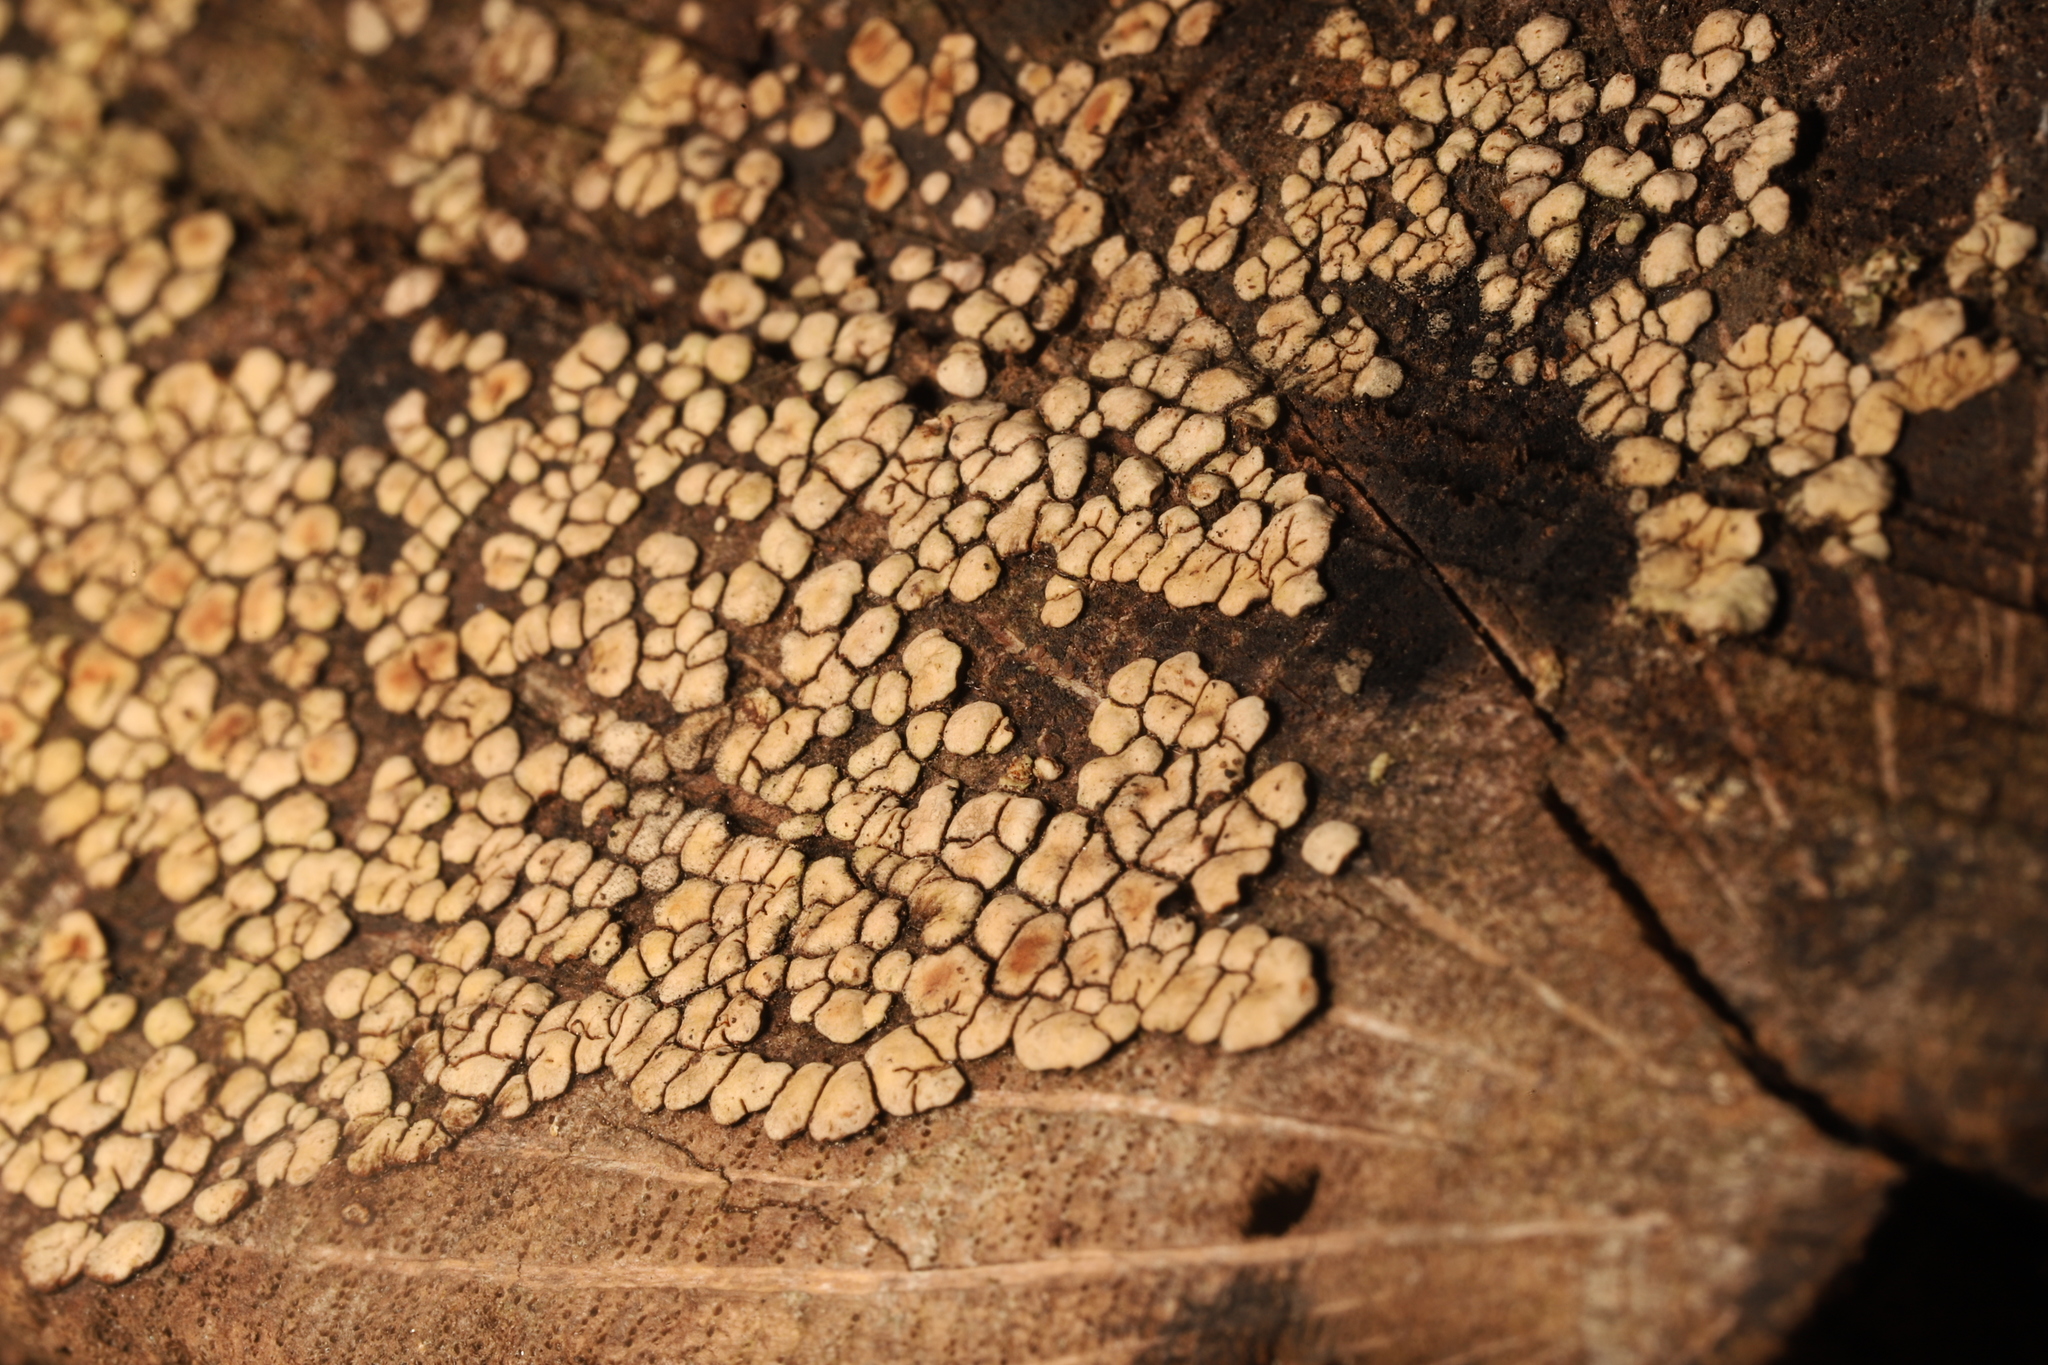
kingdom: Fungi
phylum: Basidiomycota
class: Agaricomycetes
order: Russulales
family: Stereaceae
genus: Xylobolus
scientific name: Xylobolus frustulatus
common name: Ceramic parchment
